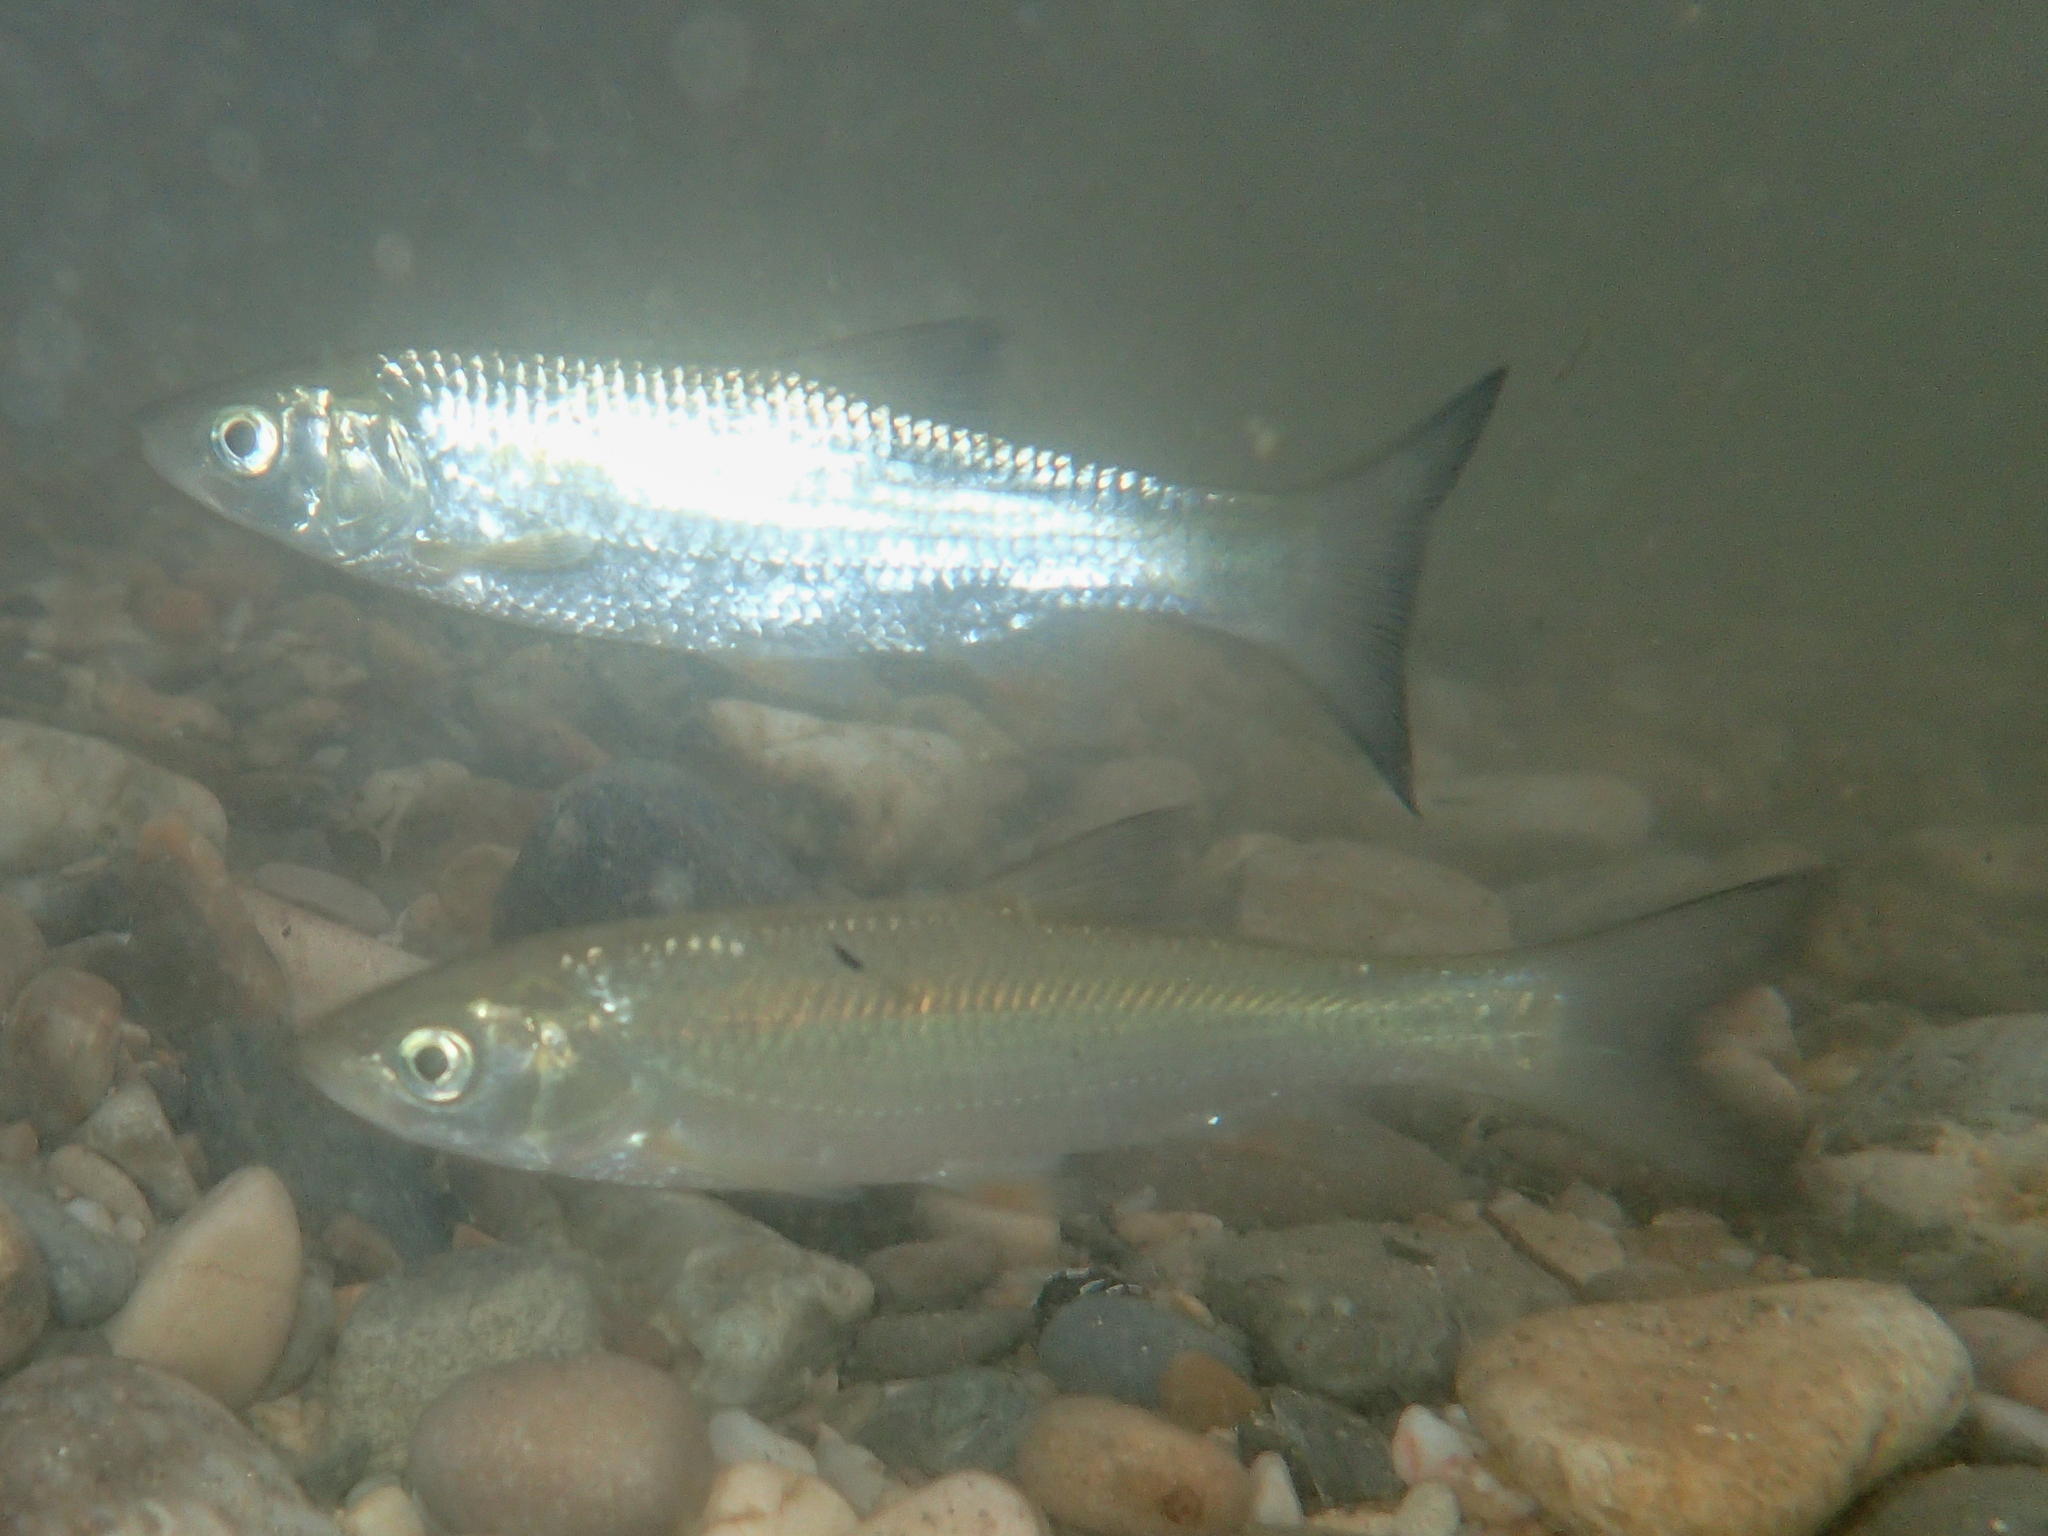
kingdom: Animalia
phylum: Chordata
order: Cypriniformes
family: Cyprinidae
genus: Squalius
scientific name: Squalius cephalus
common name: Chub
